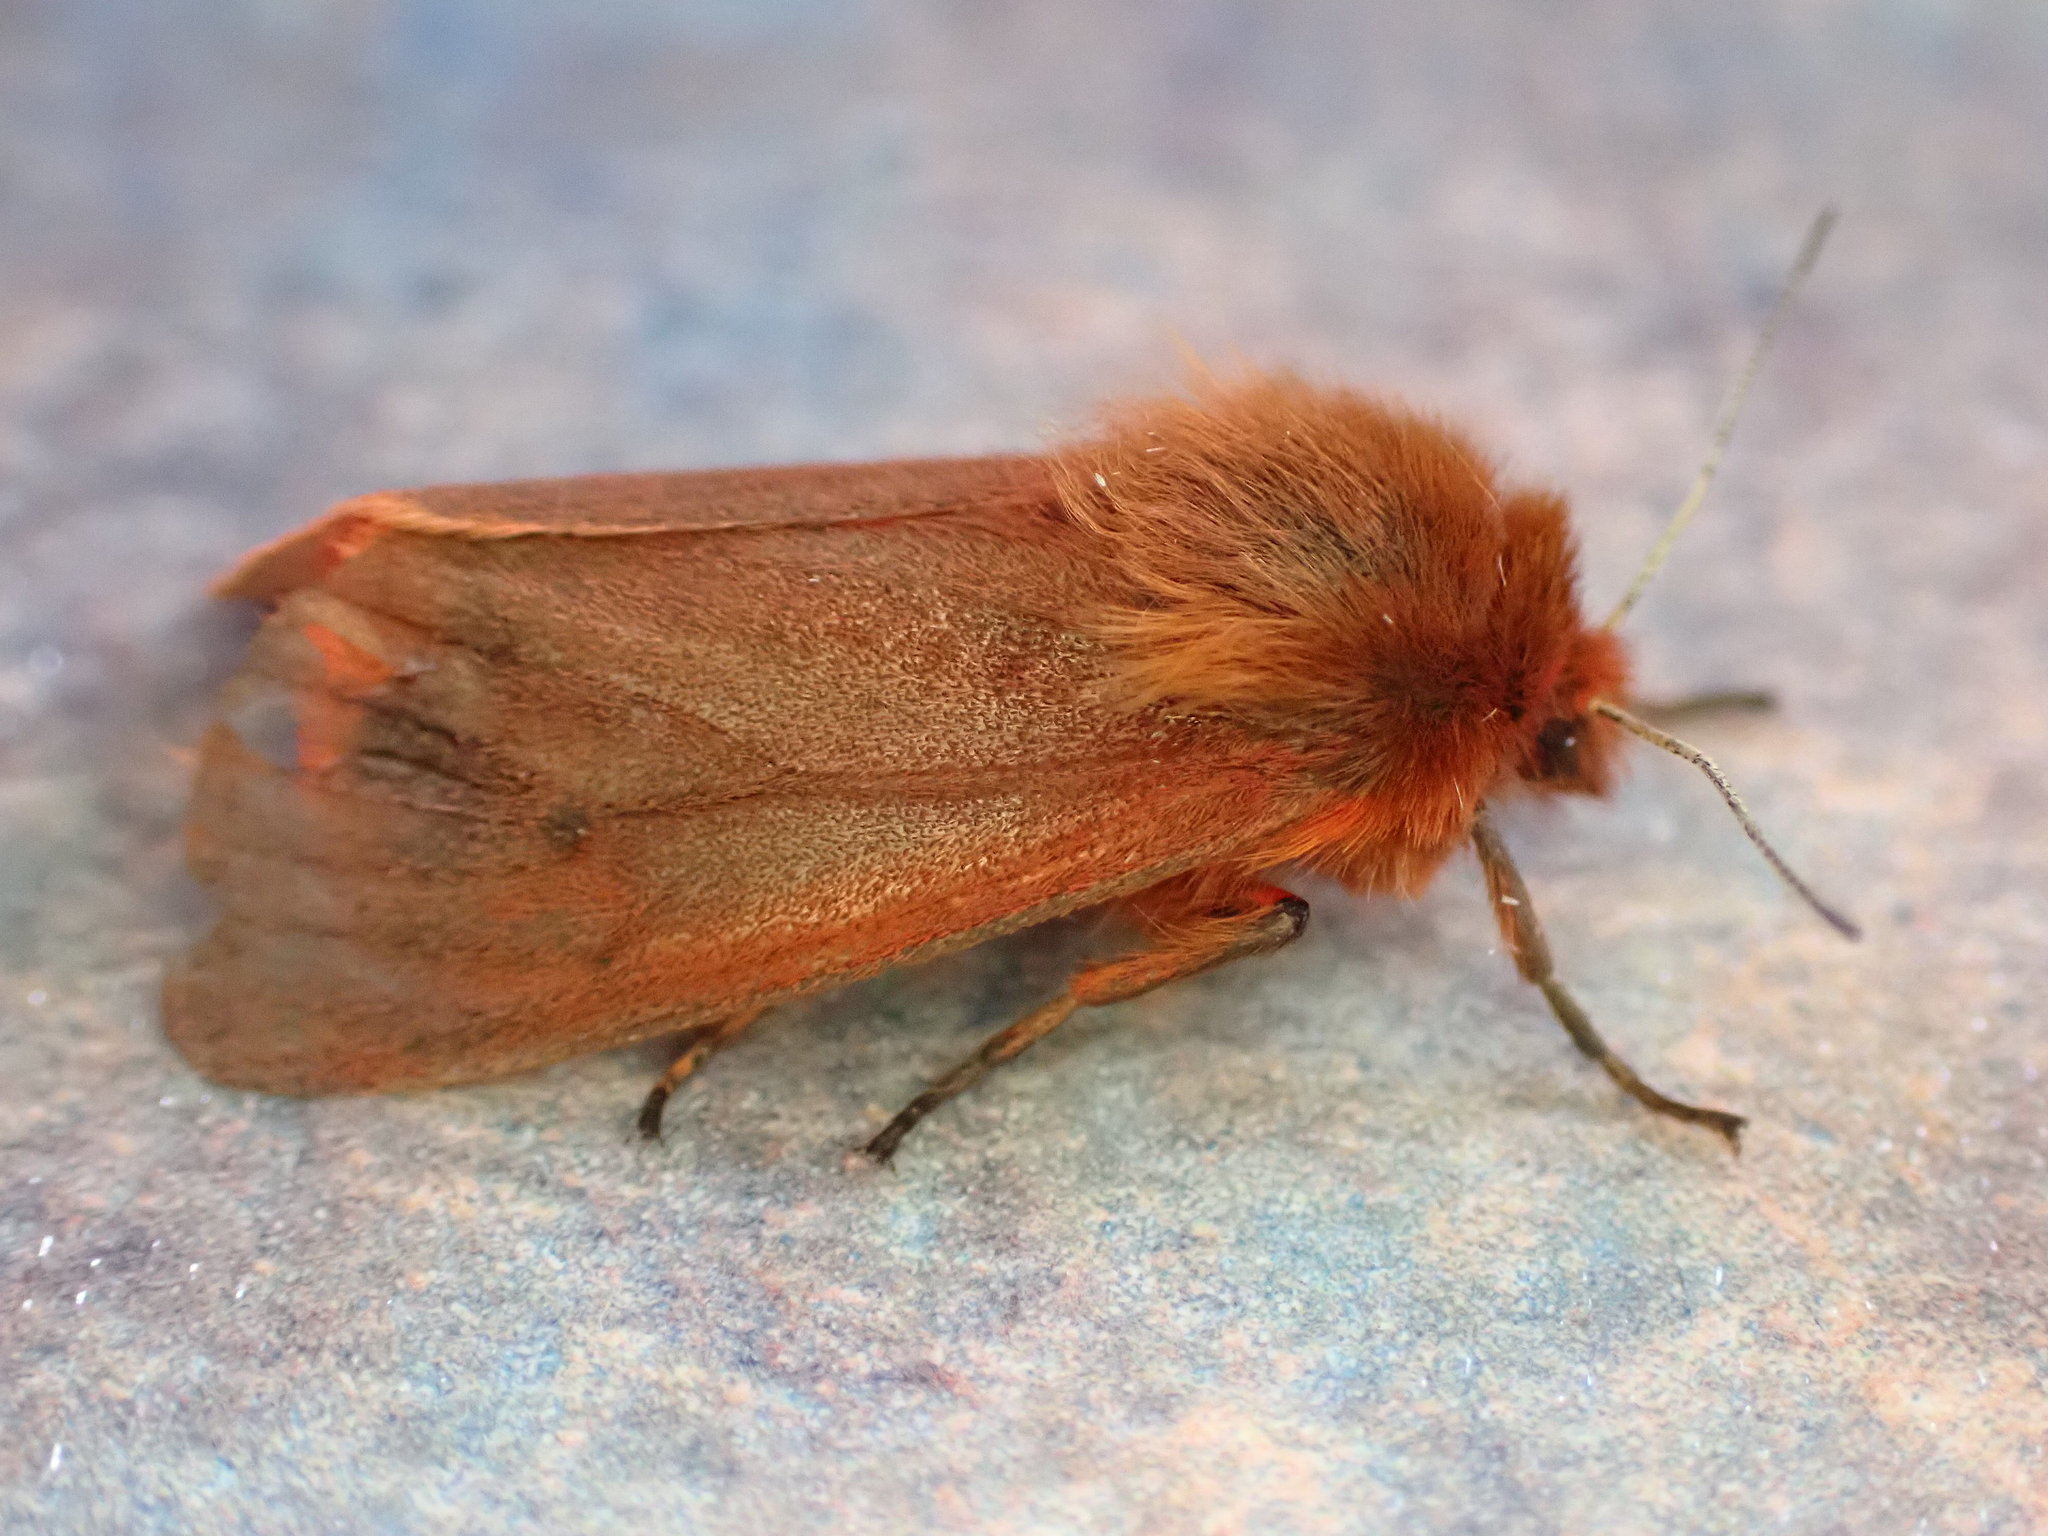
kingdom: Animalia
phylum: Arthropoda
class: Insecta
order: Lepidoptera
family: Erebidae
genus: Phragmatobia
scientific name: Phragmatobia fuliginosa
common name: Ruby tiger
